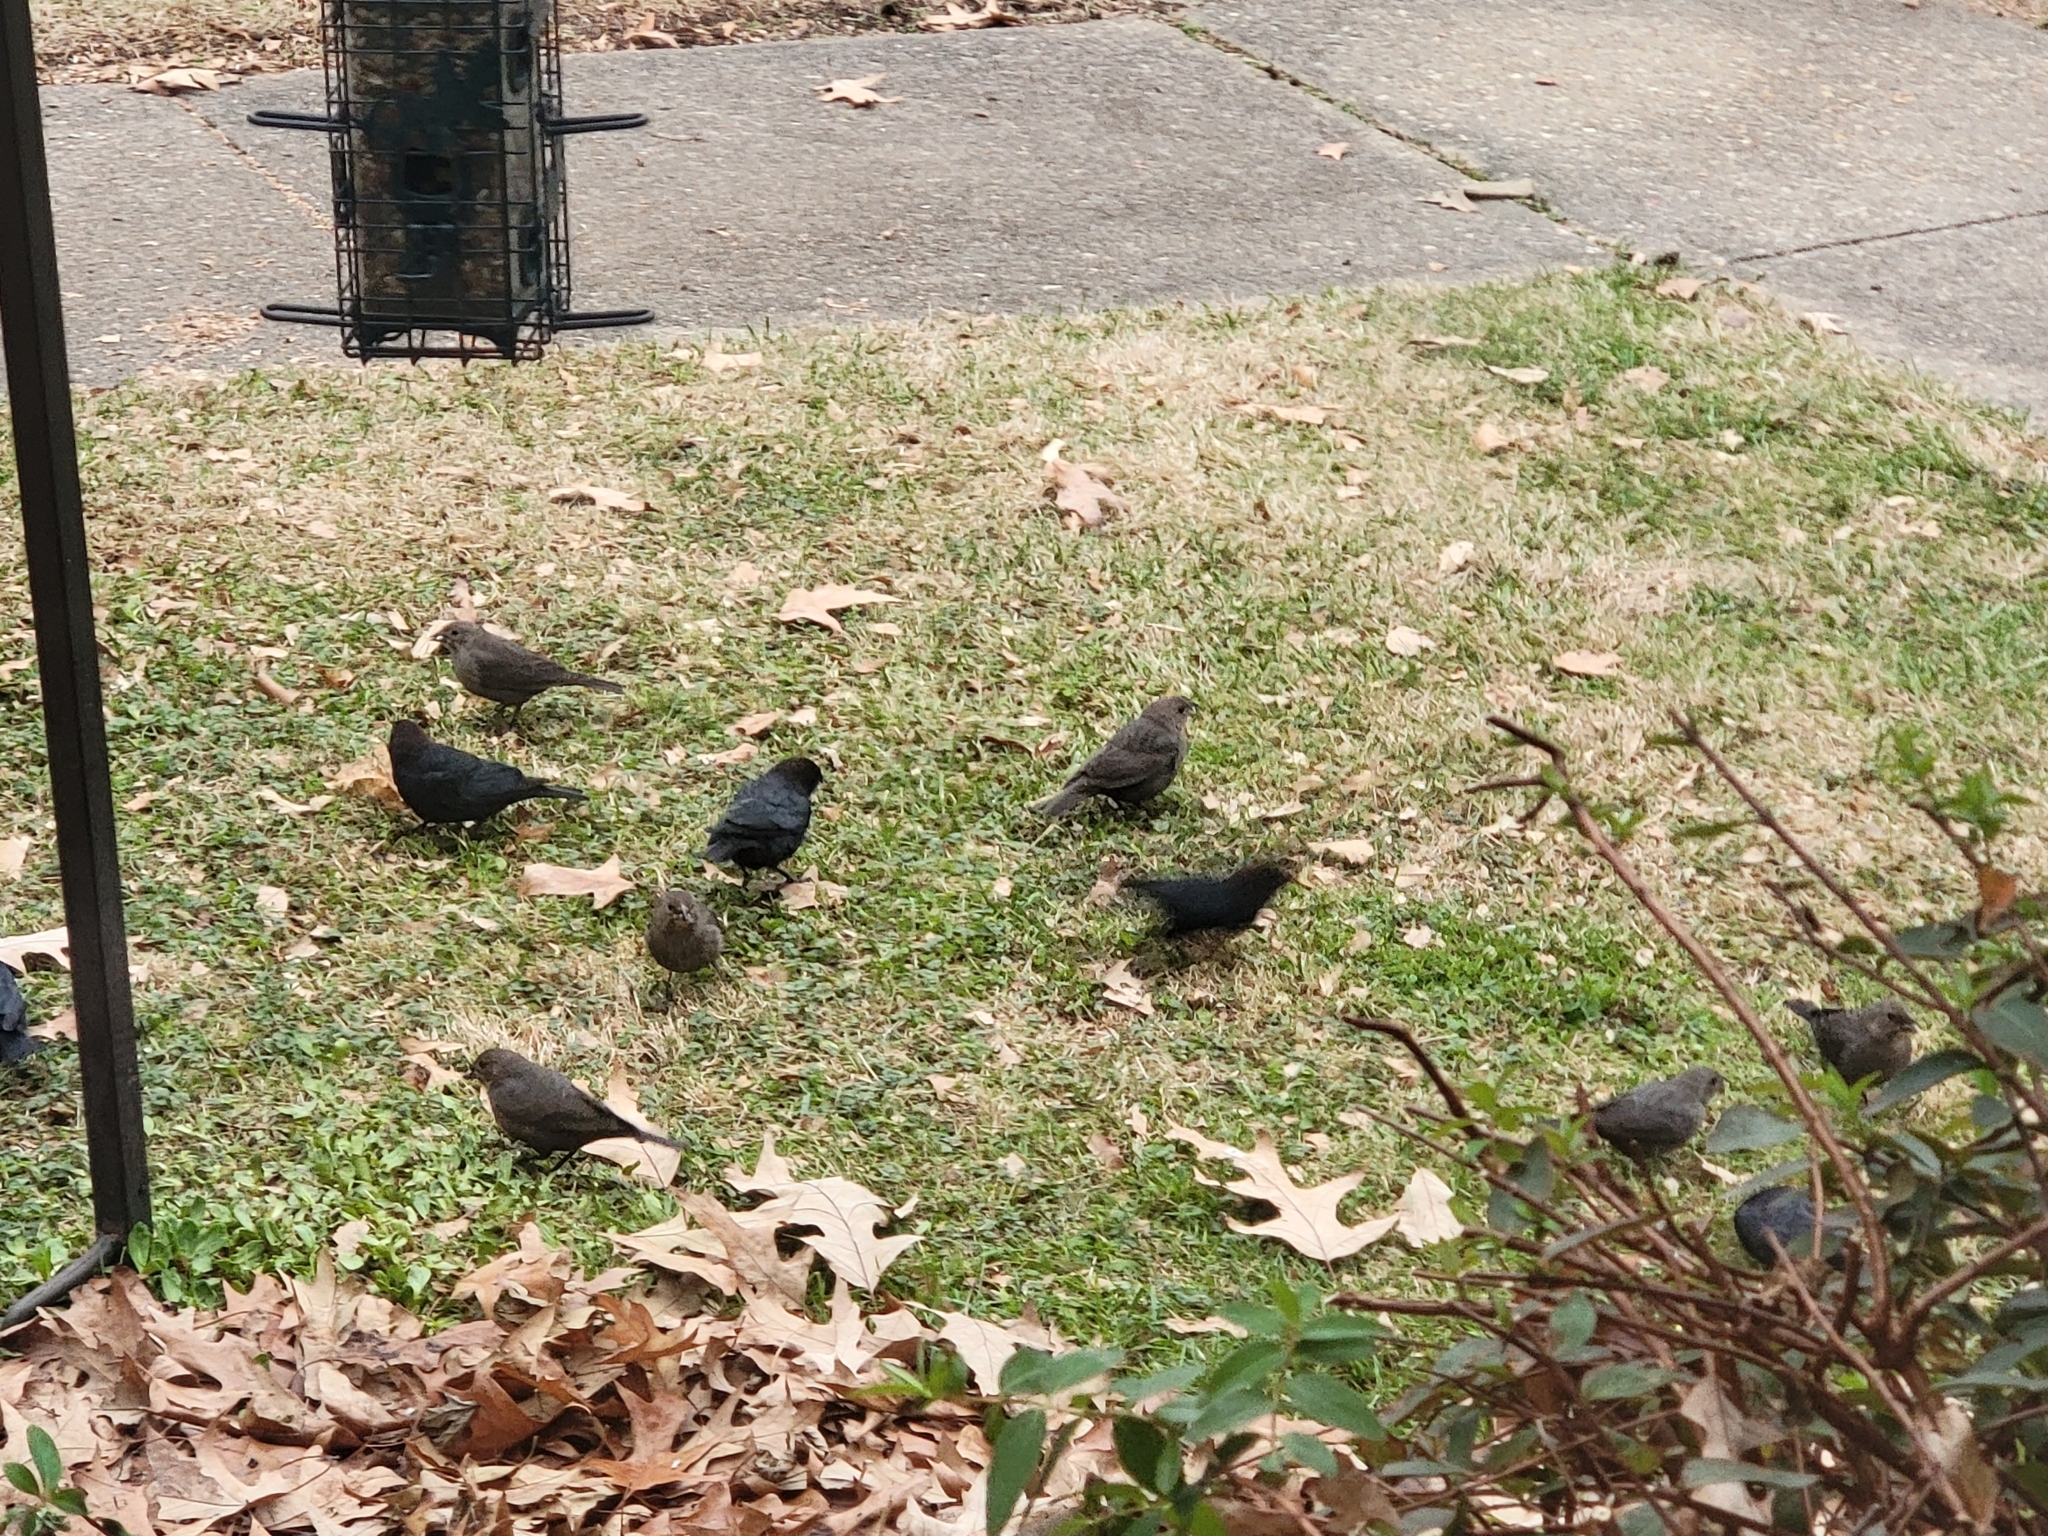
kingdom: Animalia
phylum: Chordata
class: Aves
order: Passeriformes
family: Icteridae
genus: Molothrus
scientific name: Molothrus ater
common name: Brown-headed cowbird
